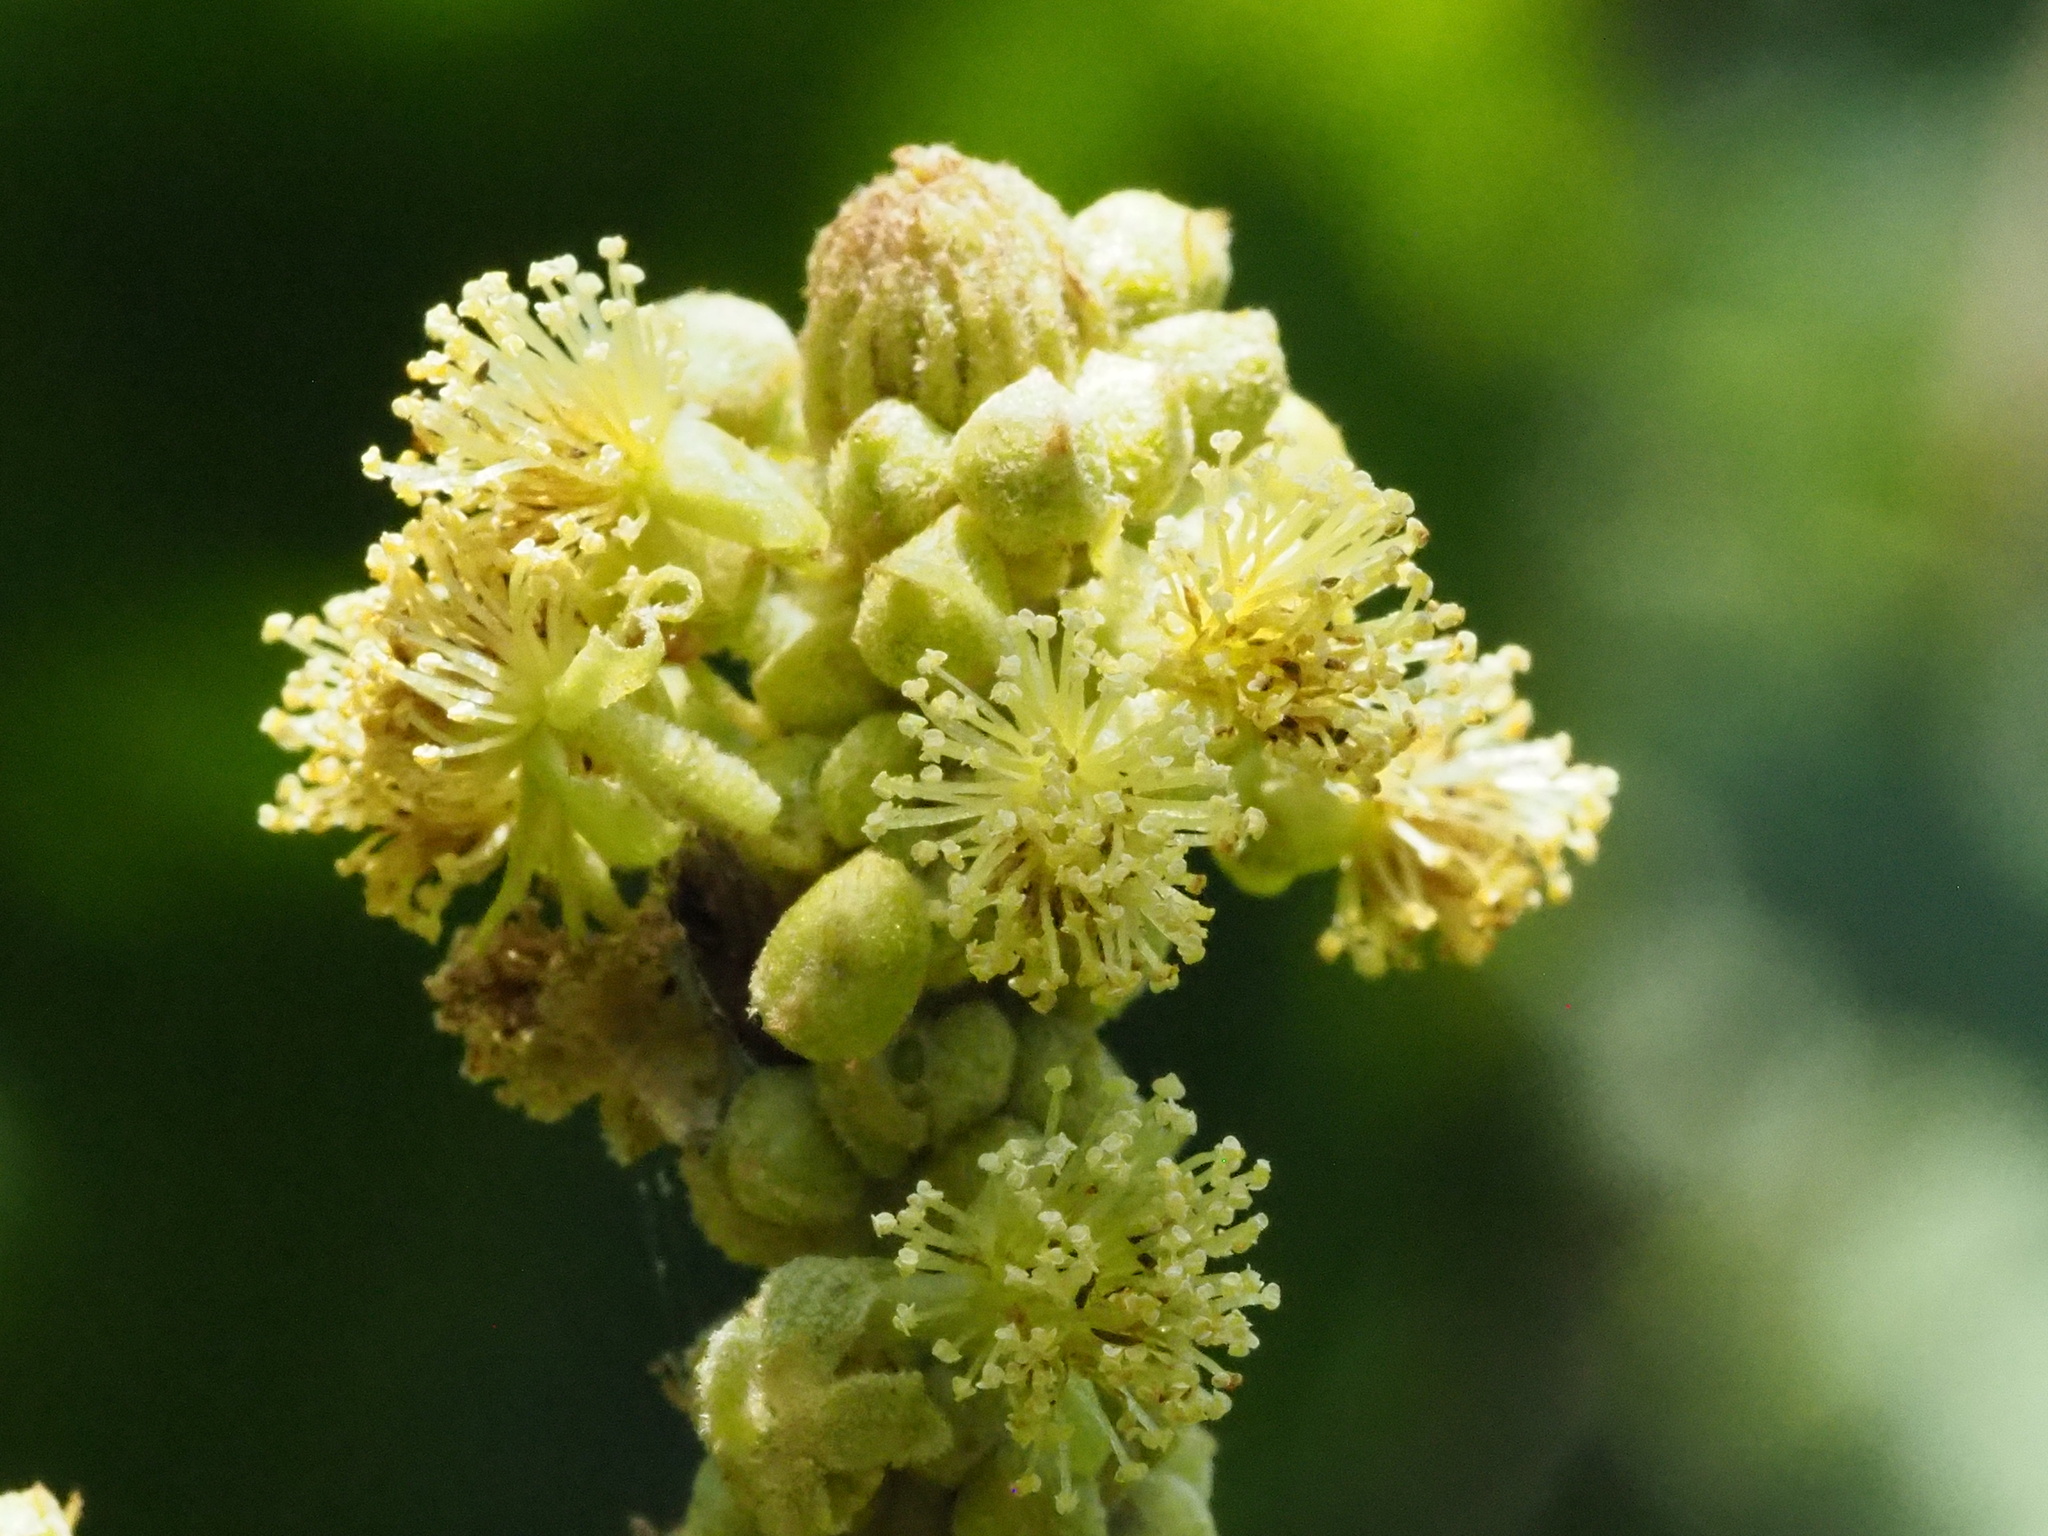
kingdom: Plantae
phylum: Tracheophyta
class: Magnoliopsida
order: Malpighiales
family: Euphorbiaceae
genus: Mallotus
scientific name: Mallotus japonicus
